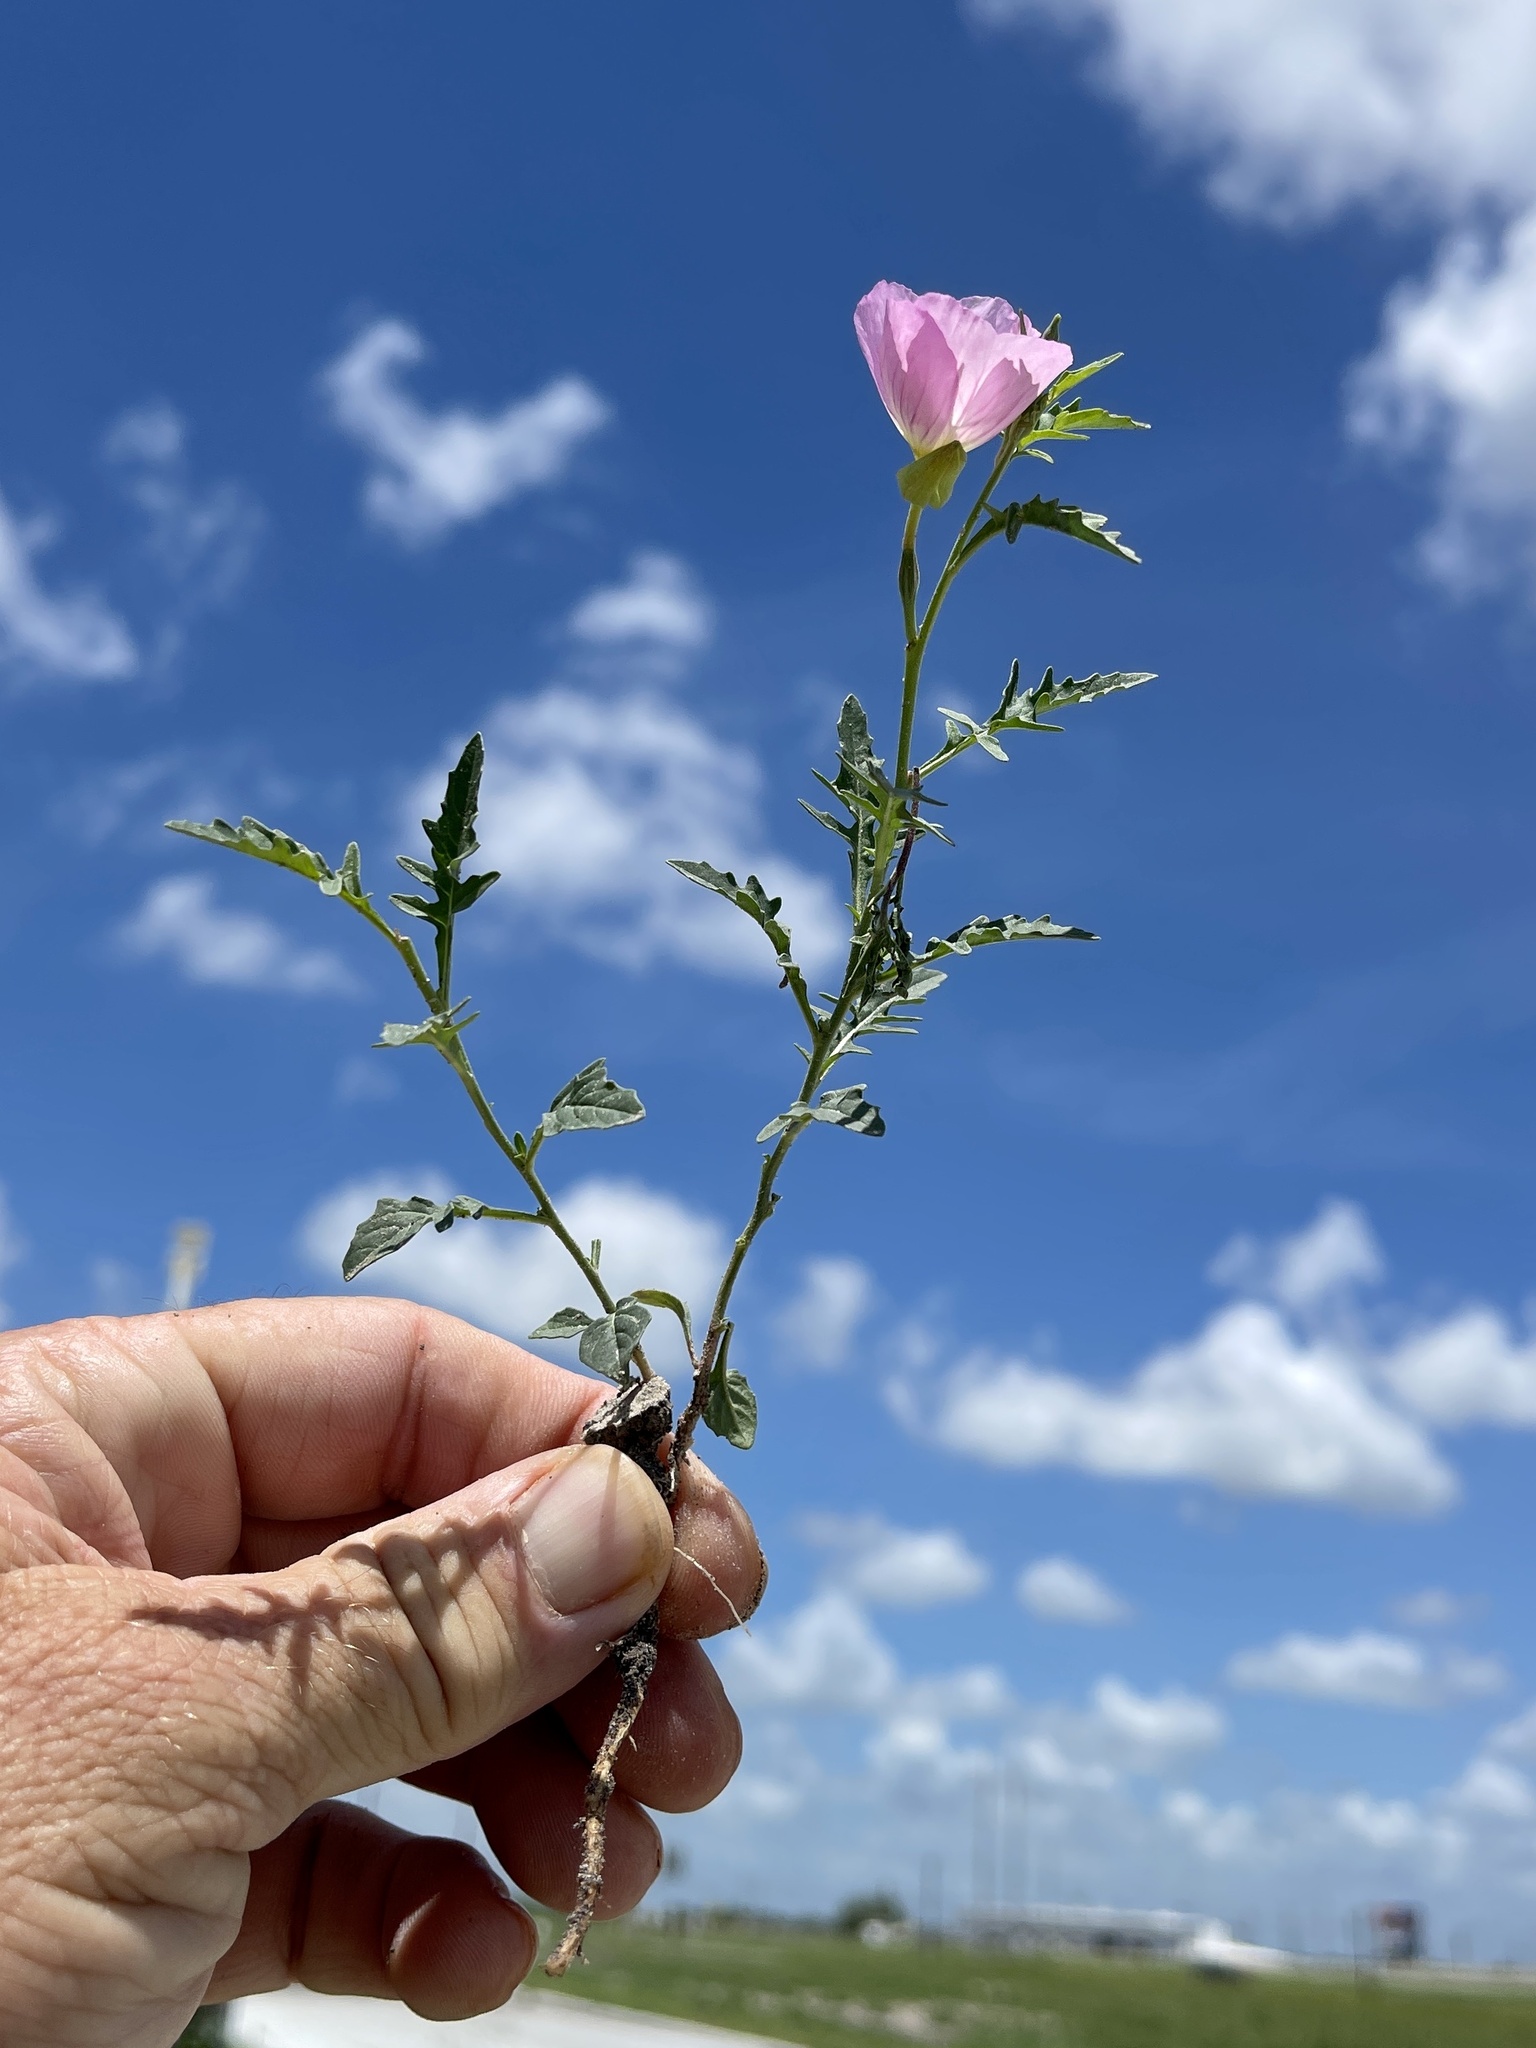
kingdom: Plantae
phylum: Tracheophyta
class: Magnoliopsida
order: Myrtales
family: Onagraceae
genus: Oenothera
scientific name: Oenothera speciosa
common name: White evening-primrose
